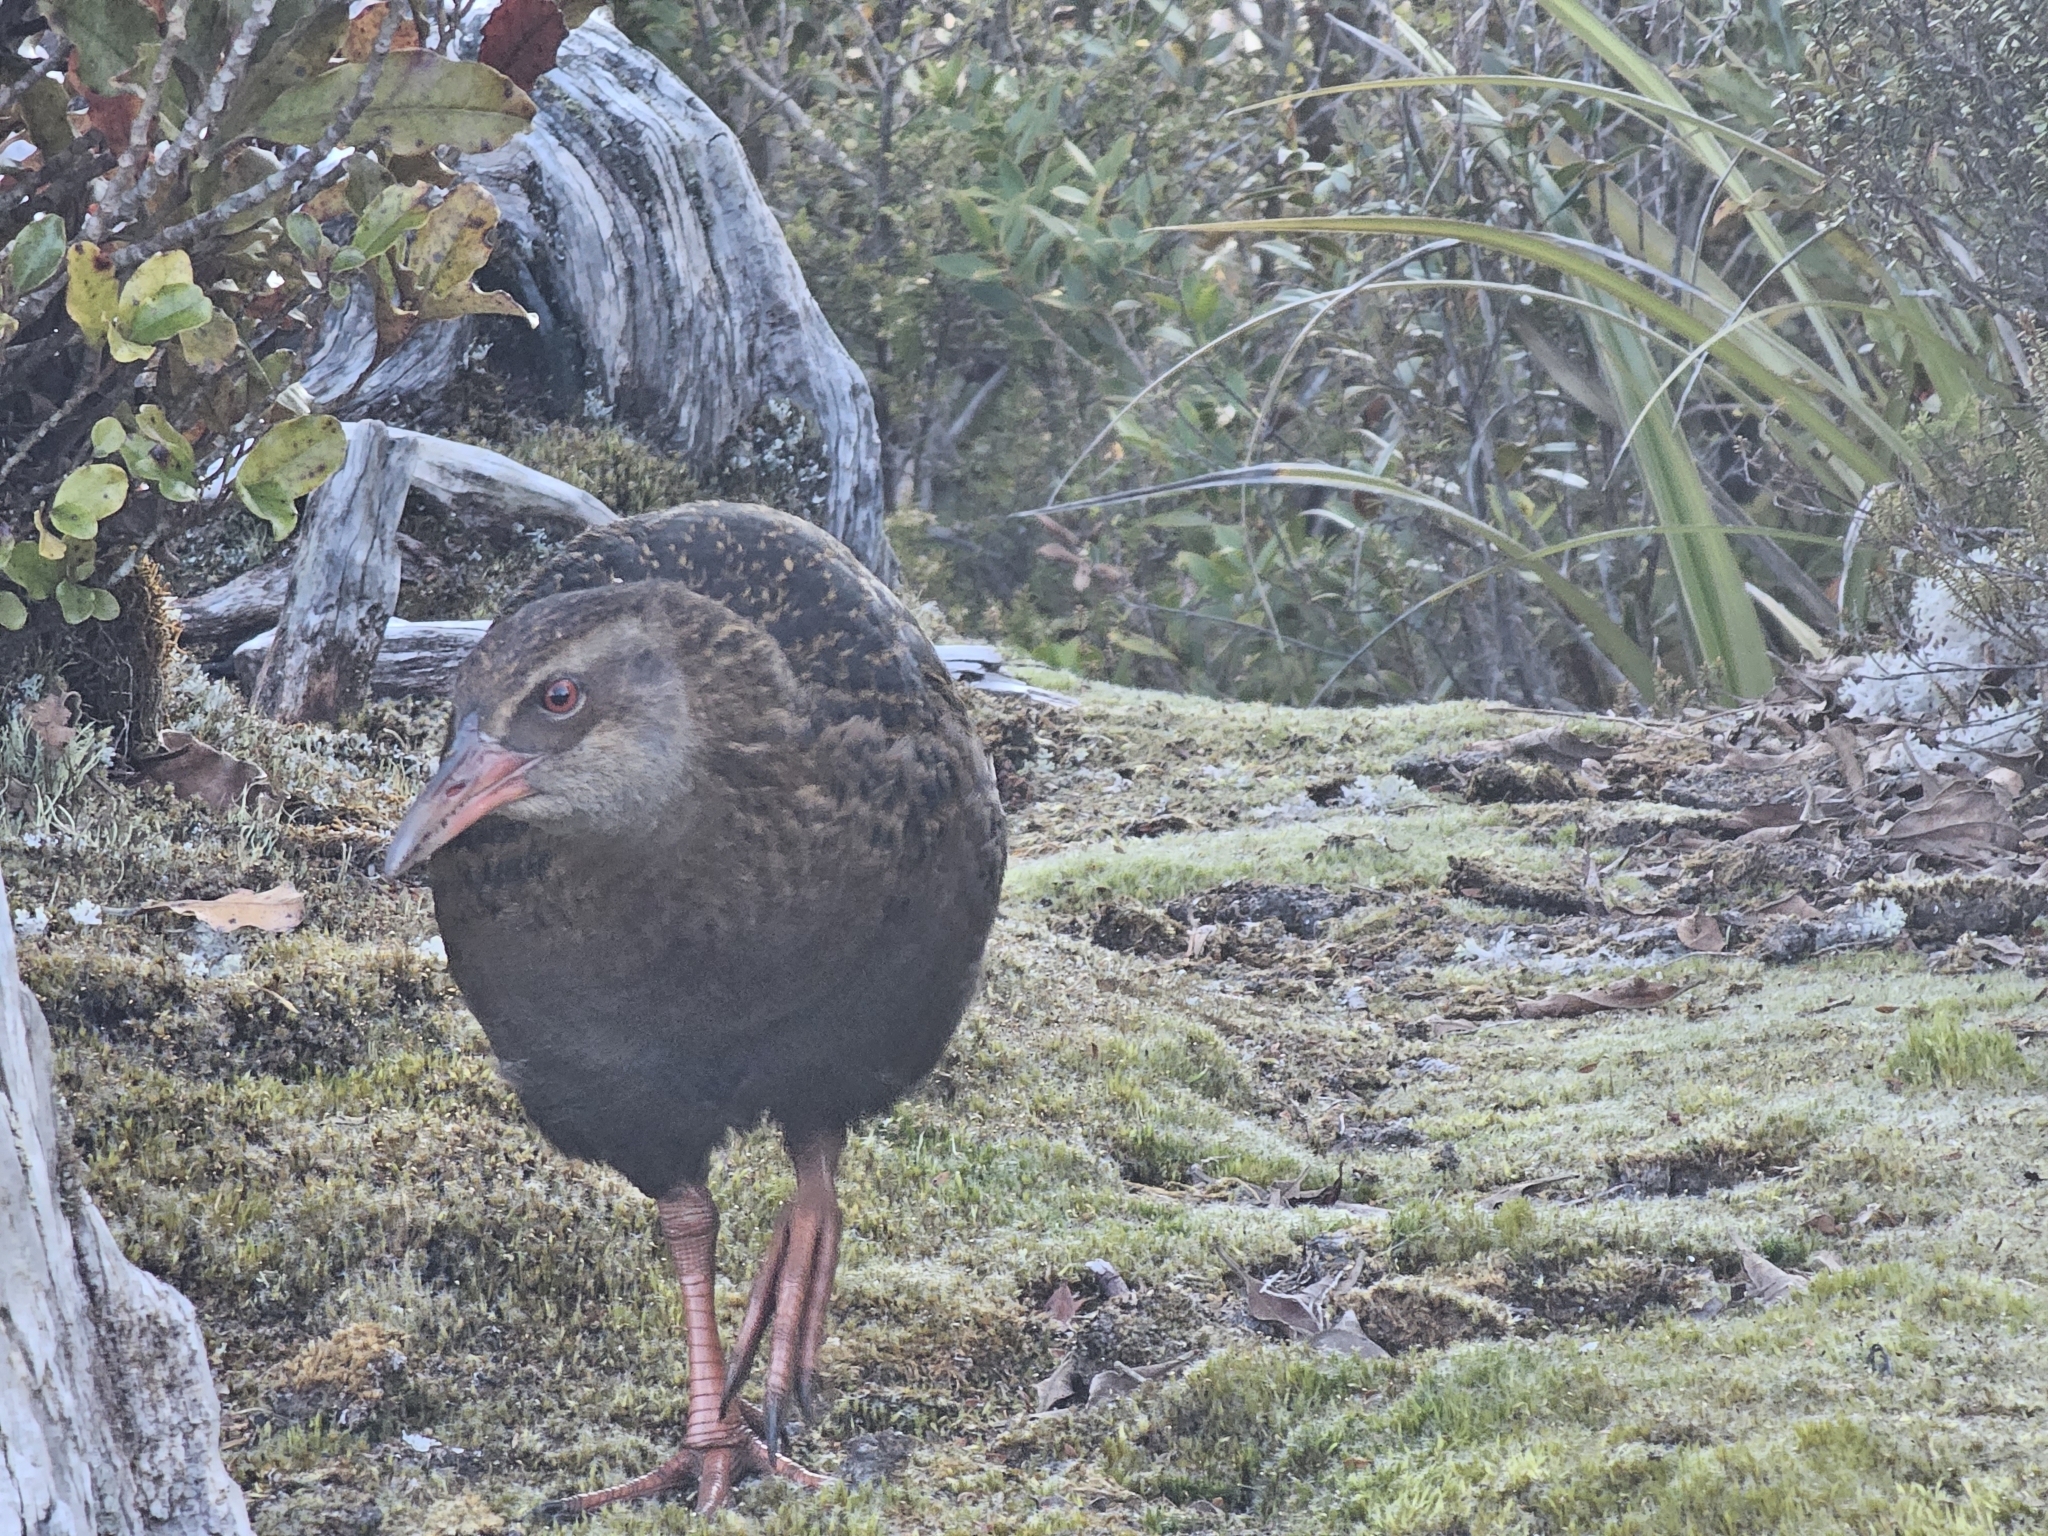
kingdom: Animalia
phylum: Chordata
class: Aves
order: Gruiformes
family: Rallidae
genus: Gallirallus
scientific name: Gallirallus australis
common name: Weka
